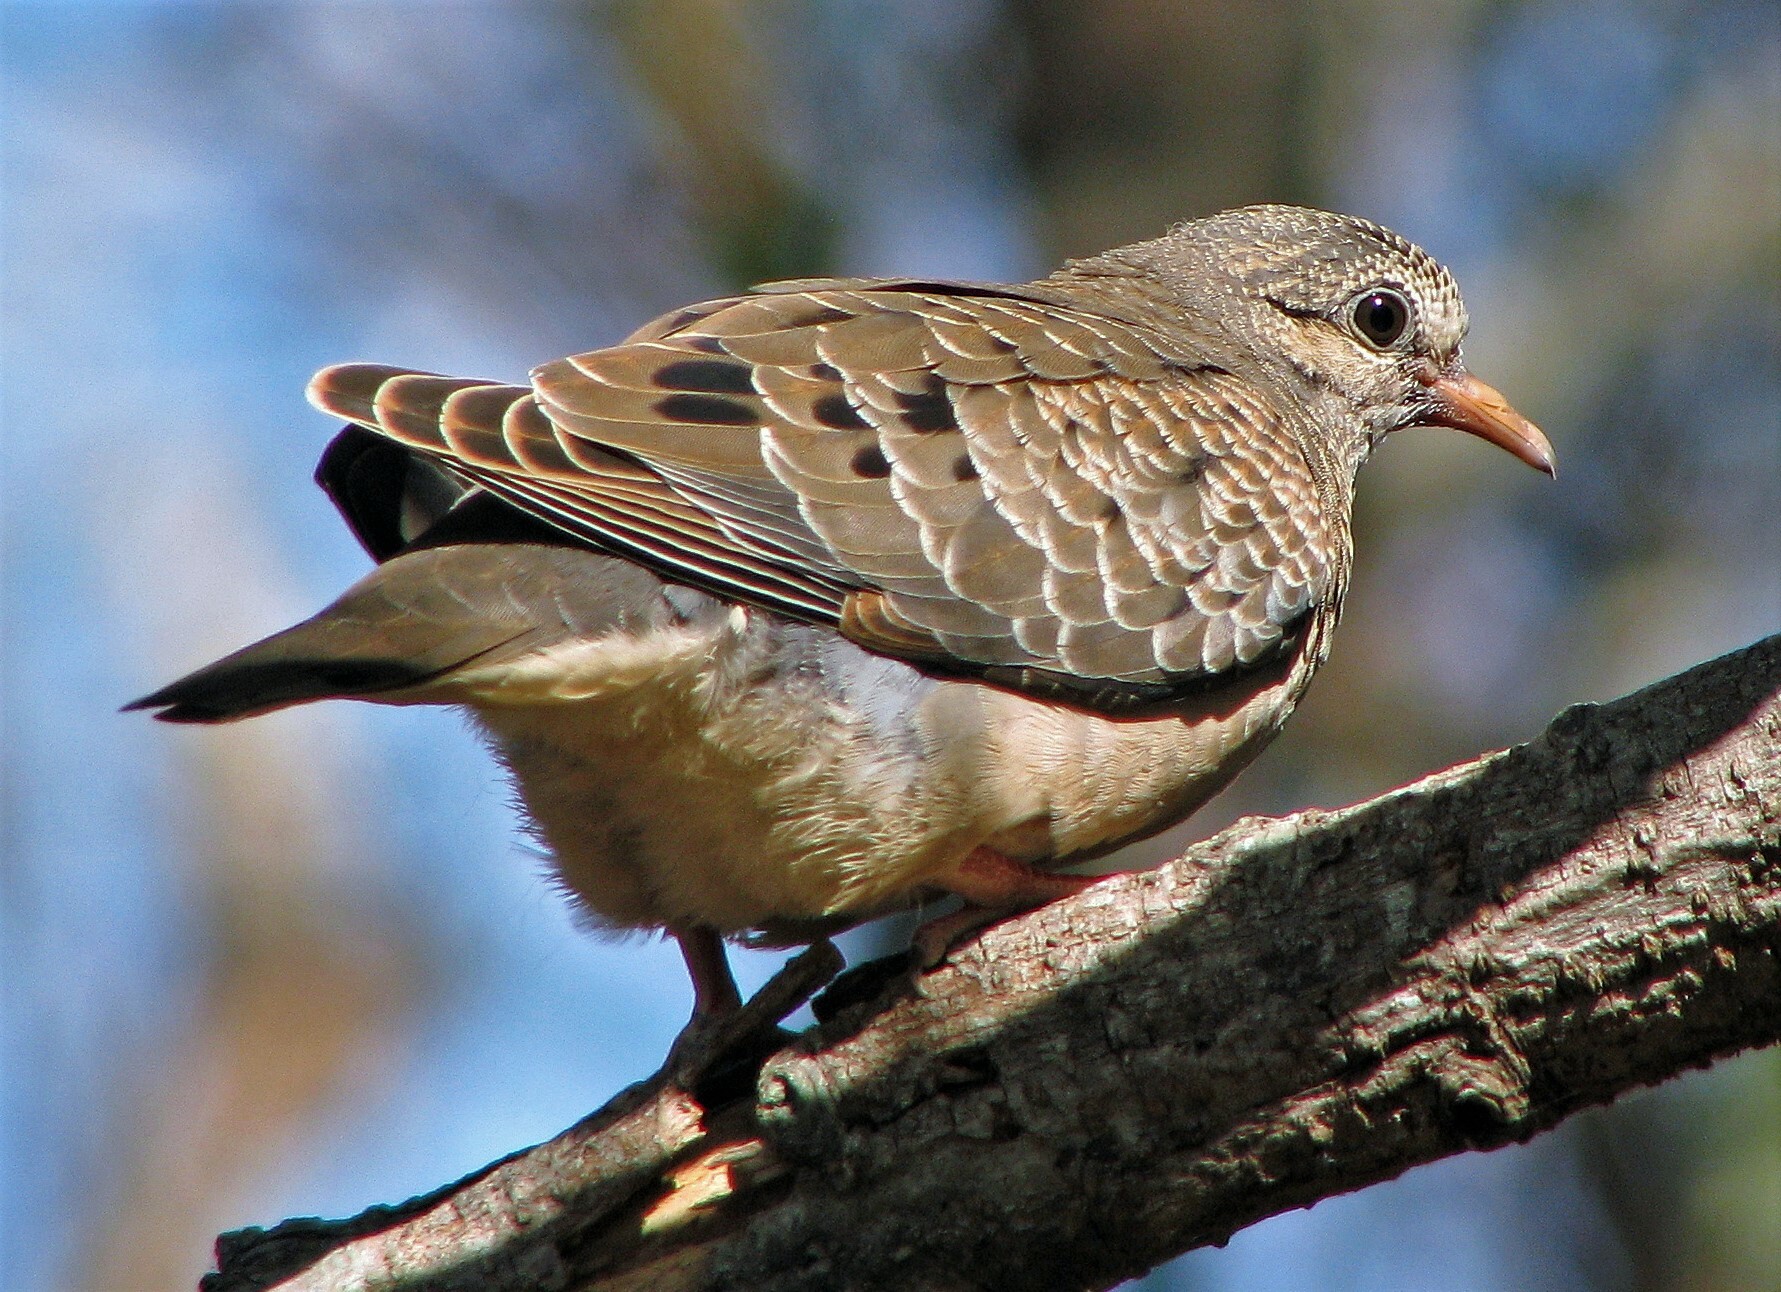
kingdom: Animalia
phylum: Chordata
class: Aves
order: Columbiformes
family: Columbidae
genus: Zenaida
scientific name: Zenaida auriculata
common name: Eared dove
